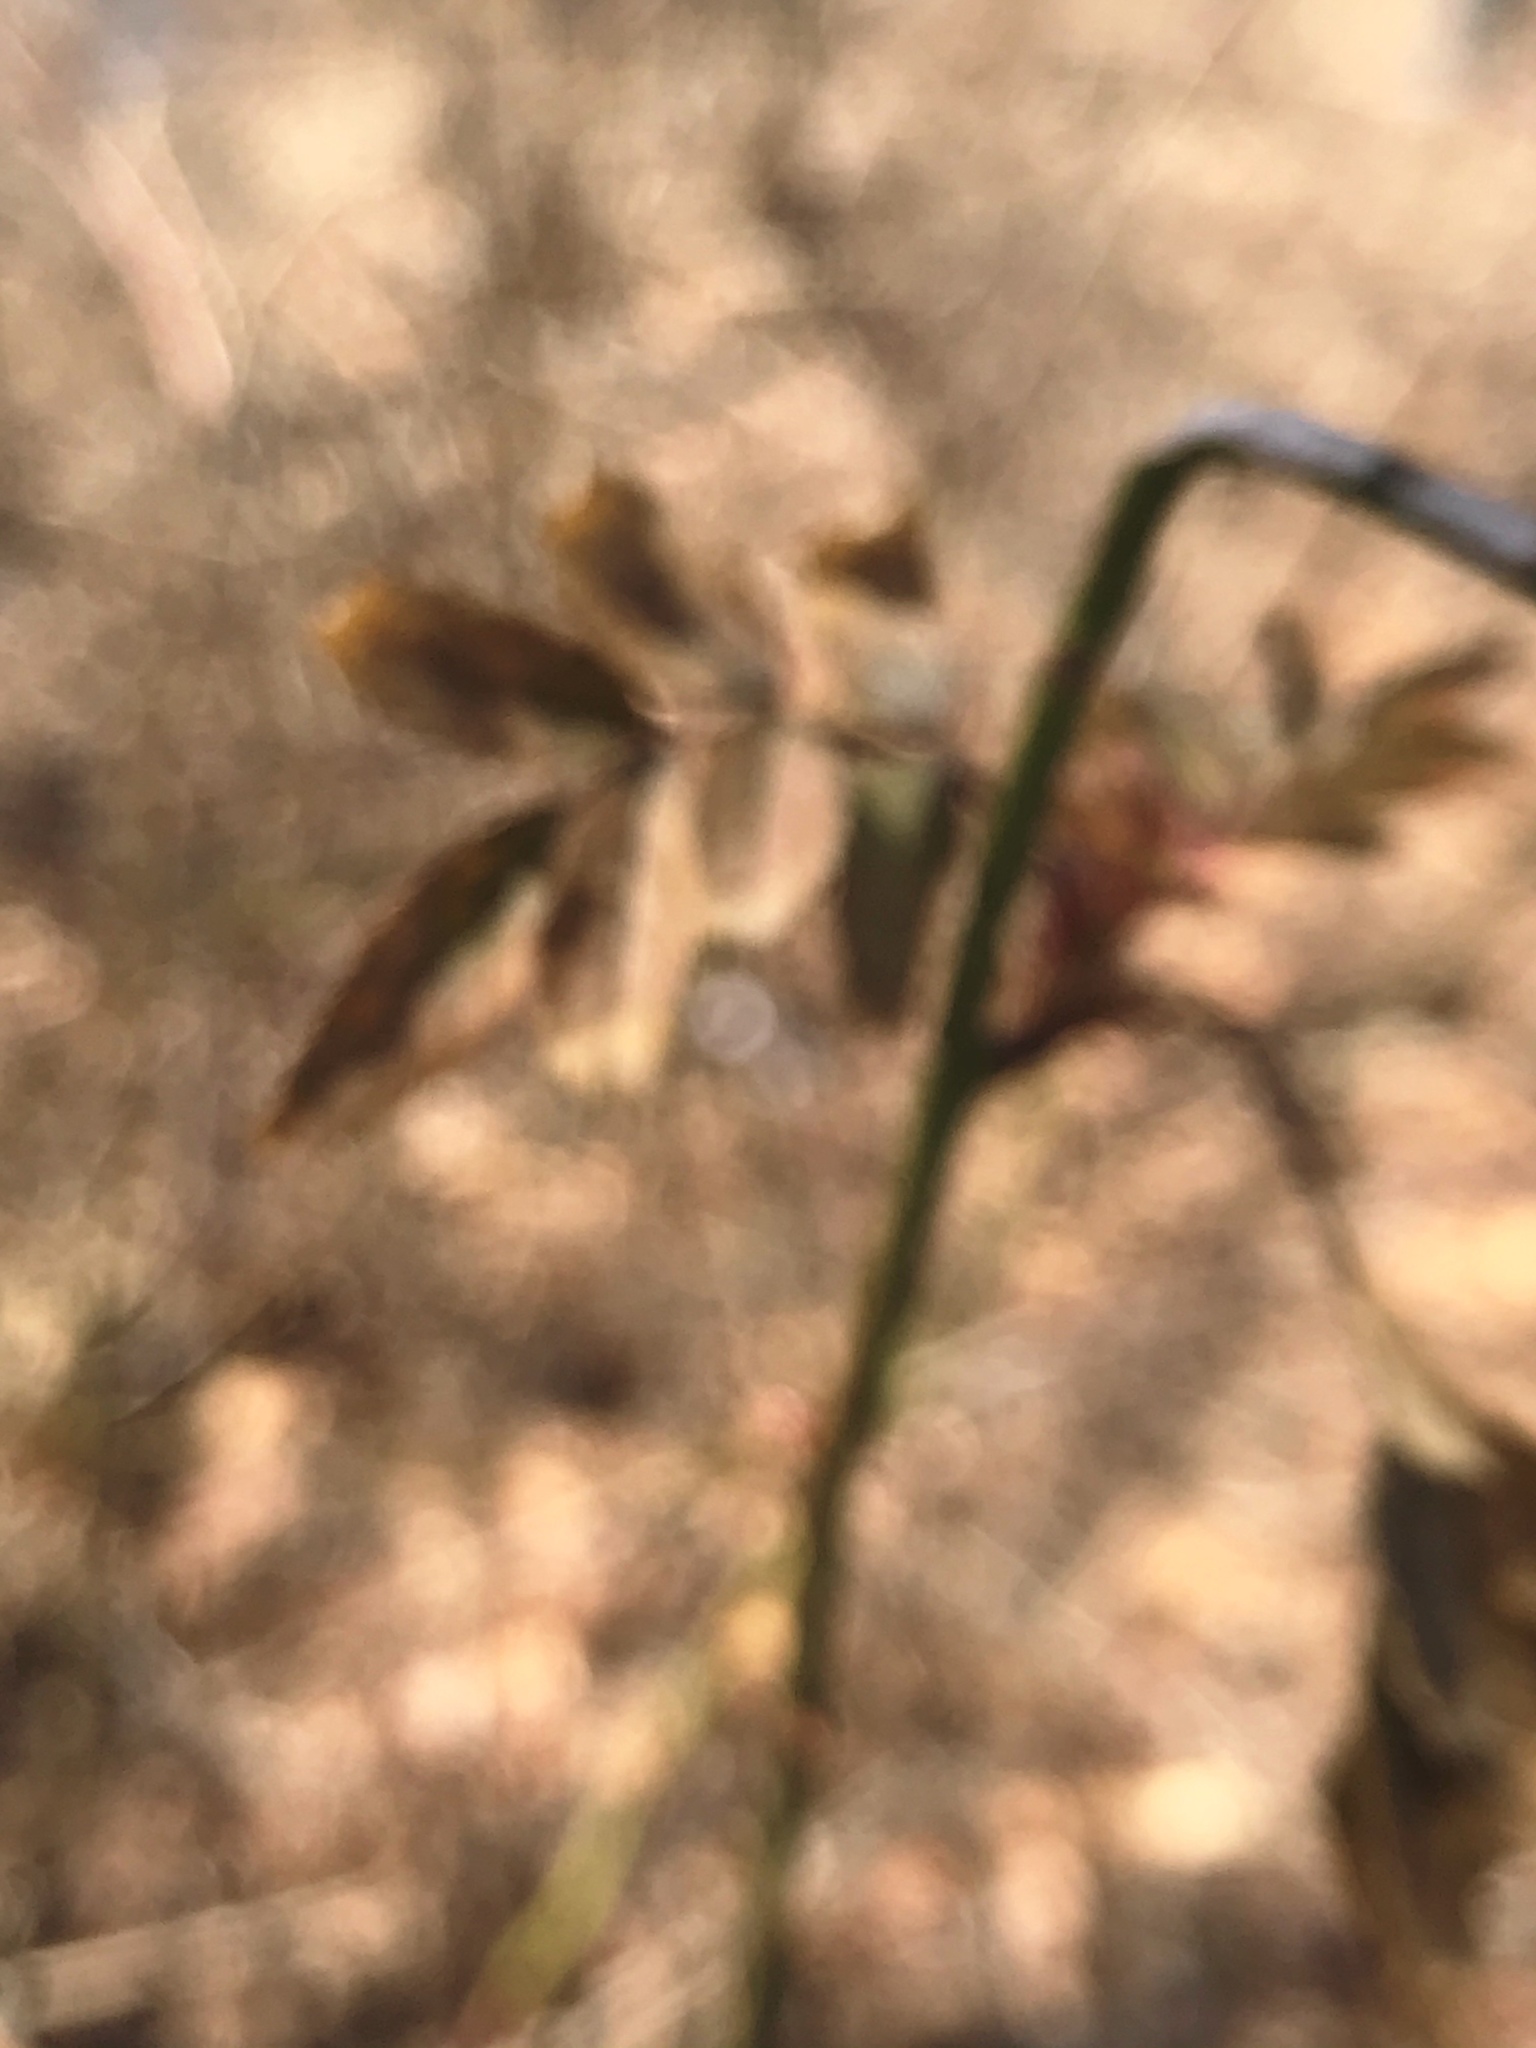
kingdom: Plantae
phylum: Tracheophyta
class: Magnoliopsida
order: Rosales
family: Rosaceae
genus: Rosa
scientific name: Rosa multiflora
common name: Multiflora rose
